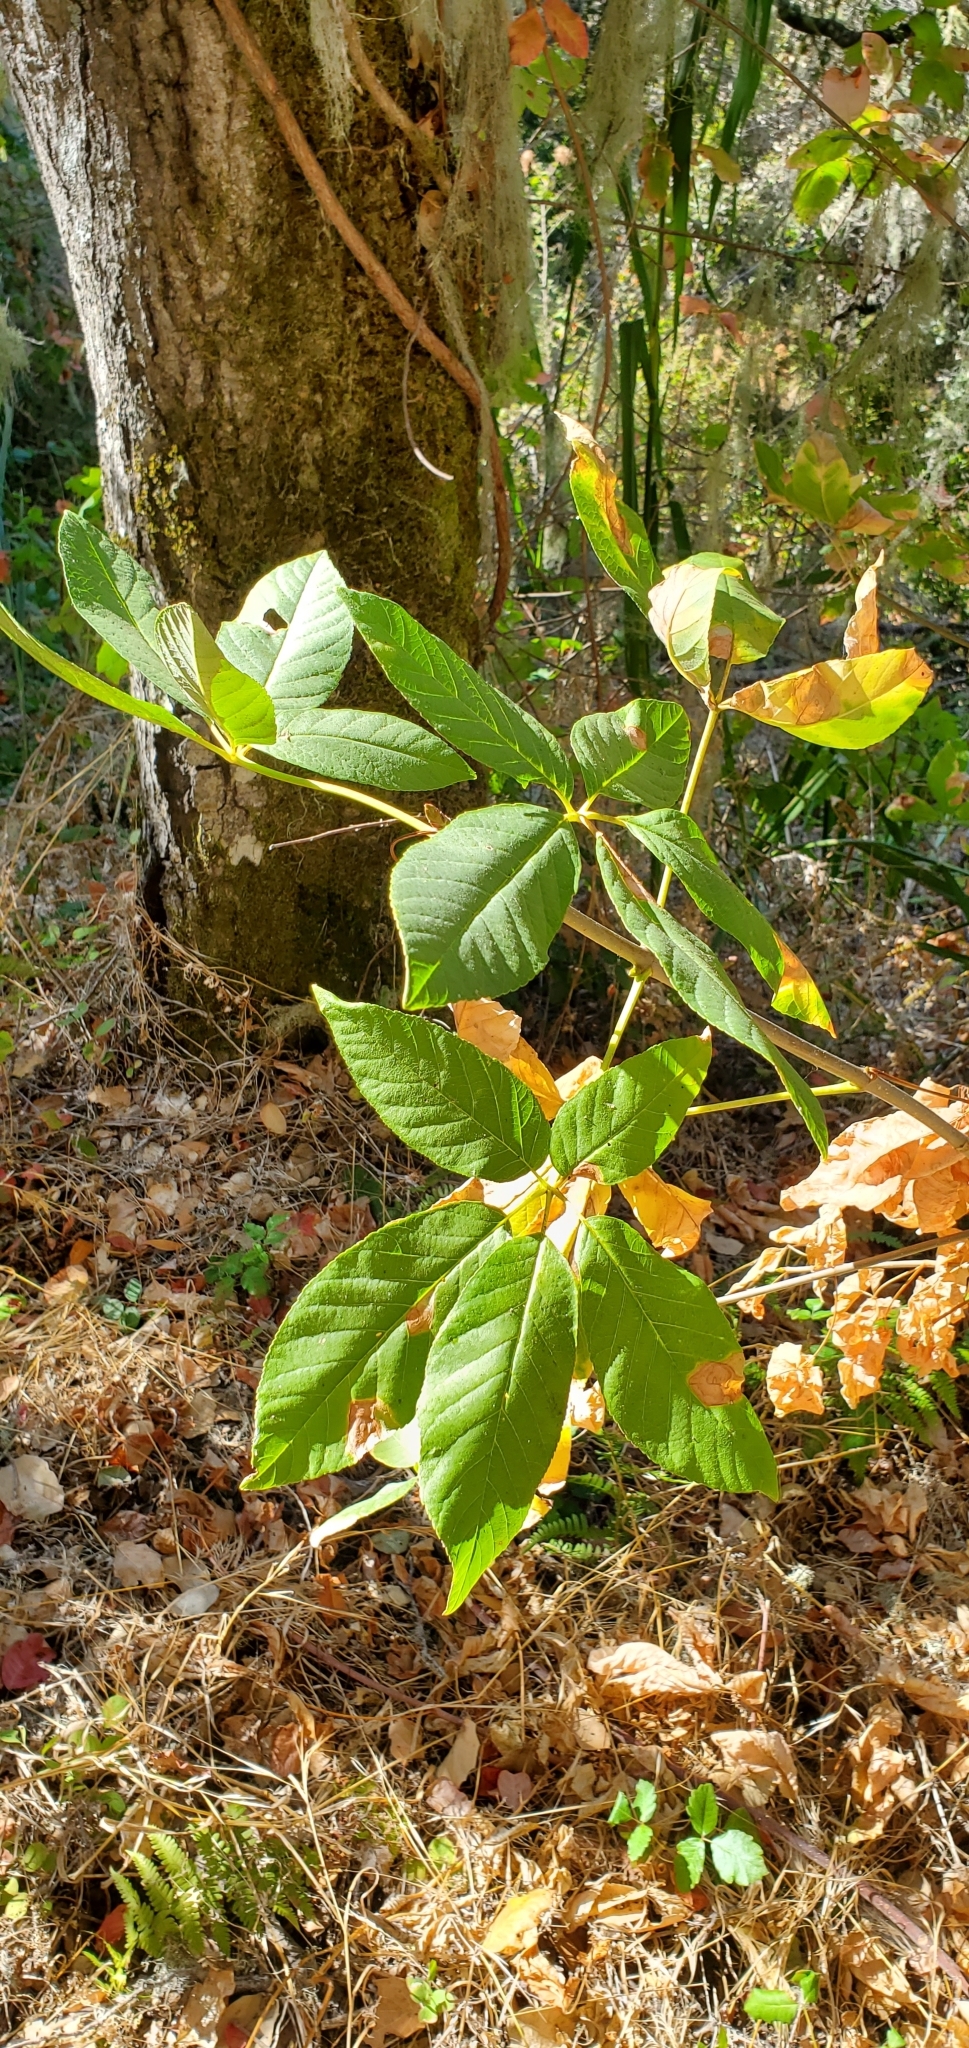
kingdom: Plantae
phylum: Tracheophyta
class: Magnoliopsida
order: Sapindales
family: Sapindaceae
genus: Aesculus
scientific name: Aesculus californica
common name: California buckeye
